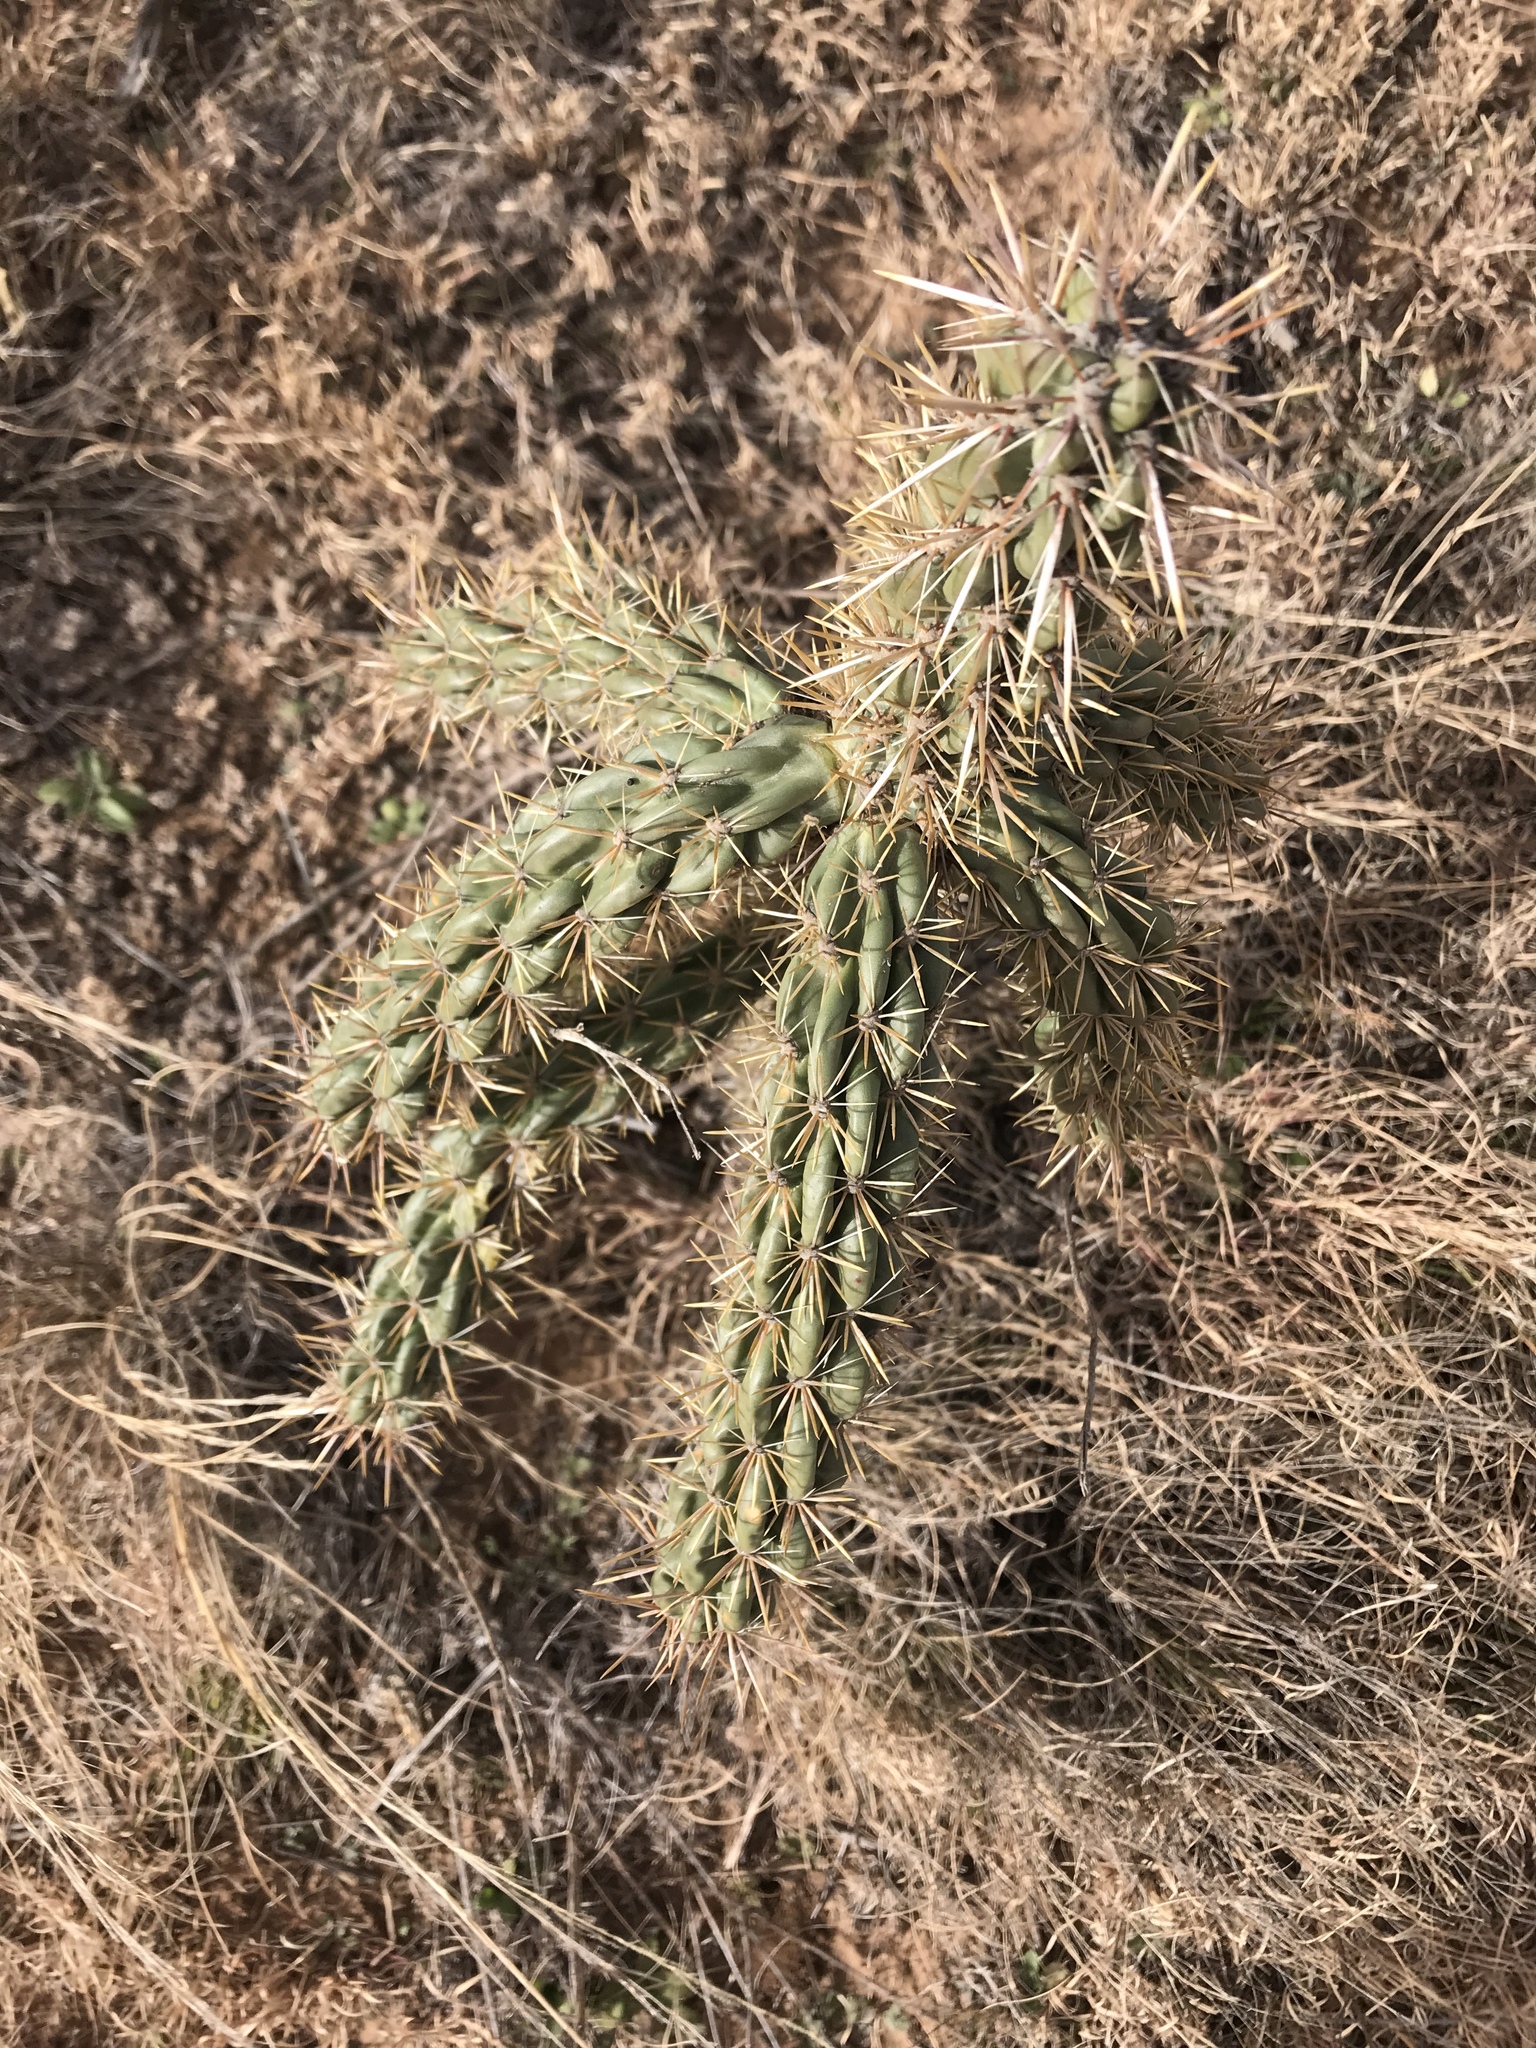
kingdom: Plantae
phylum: Tracheophyta
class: Magnoliopsida
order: Caryophyllales
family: Cactaceae
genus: Cylindropuntia
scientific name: Cylindropuntia imbricata
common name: Candelabrum cactus
